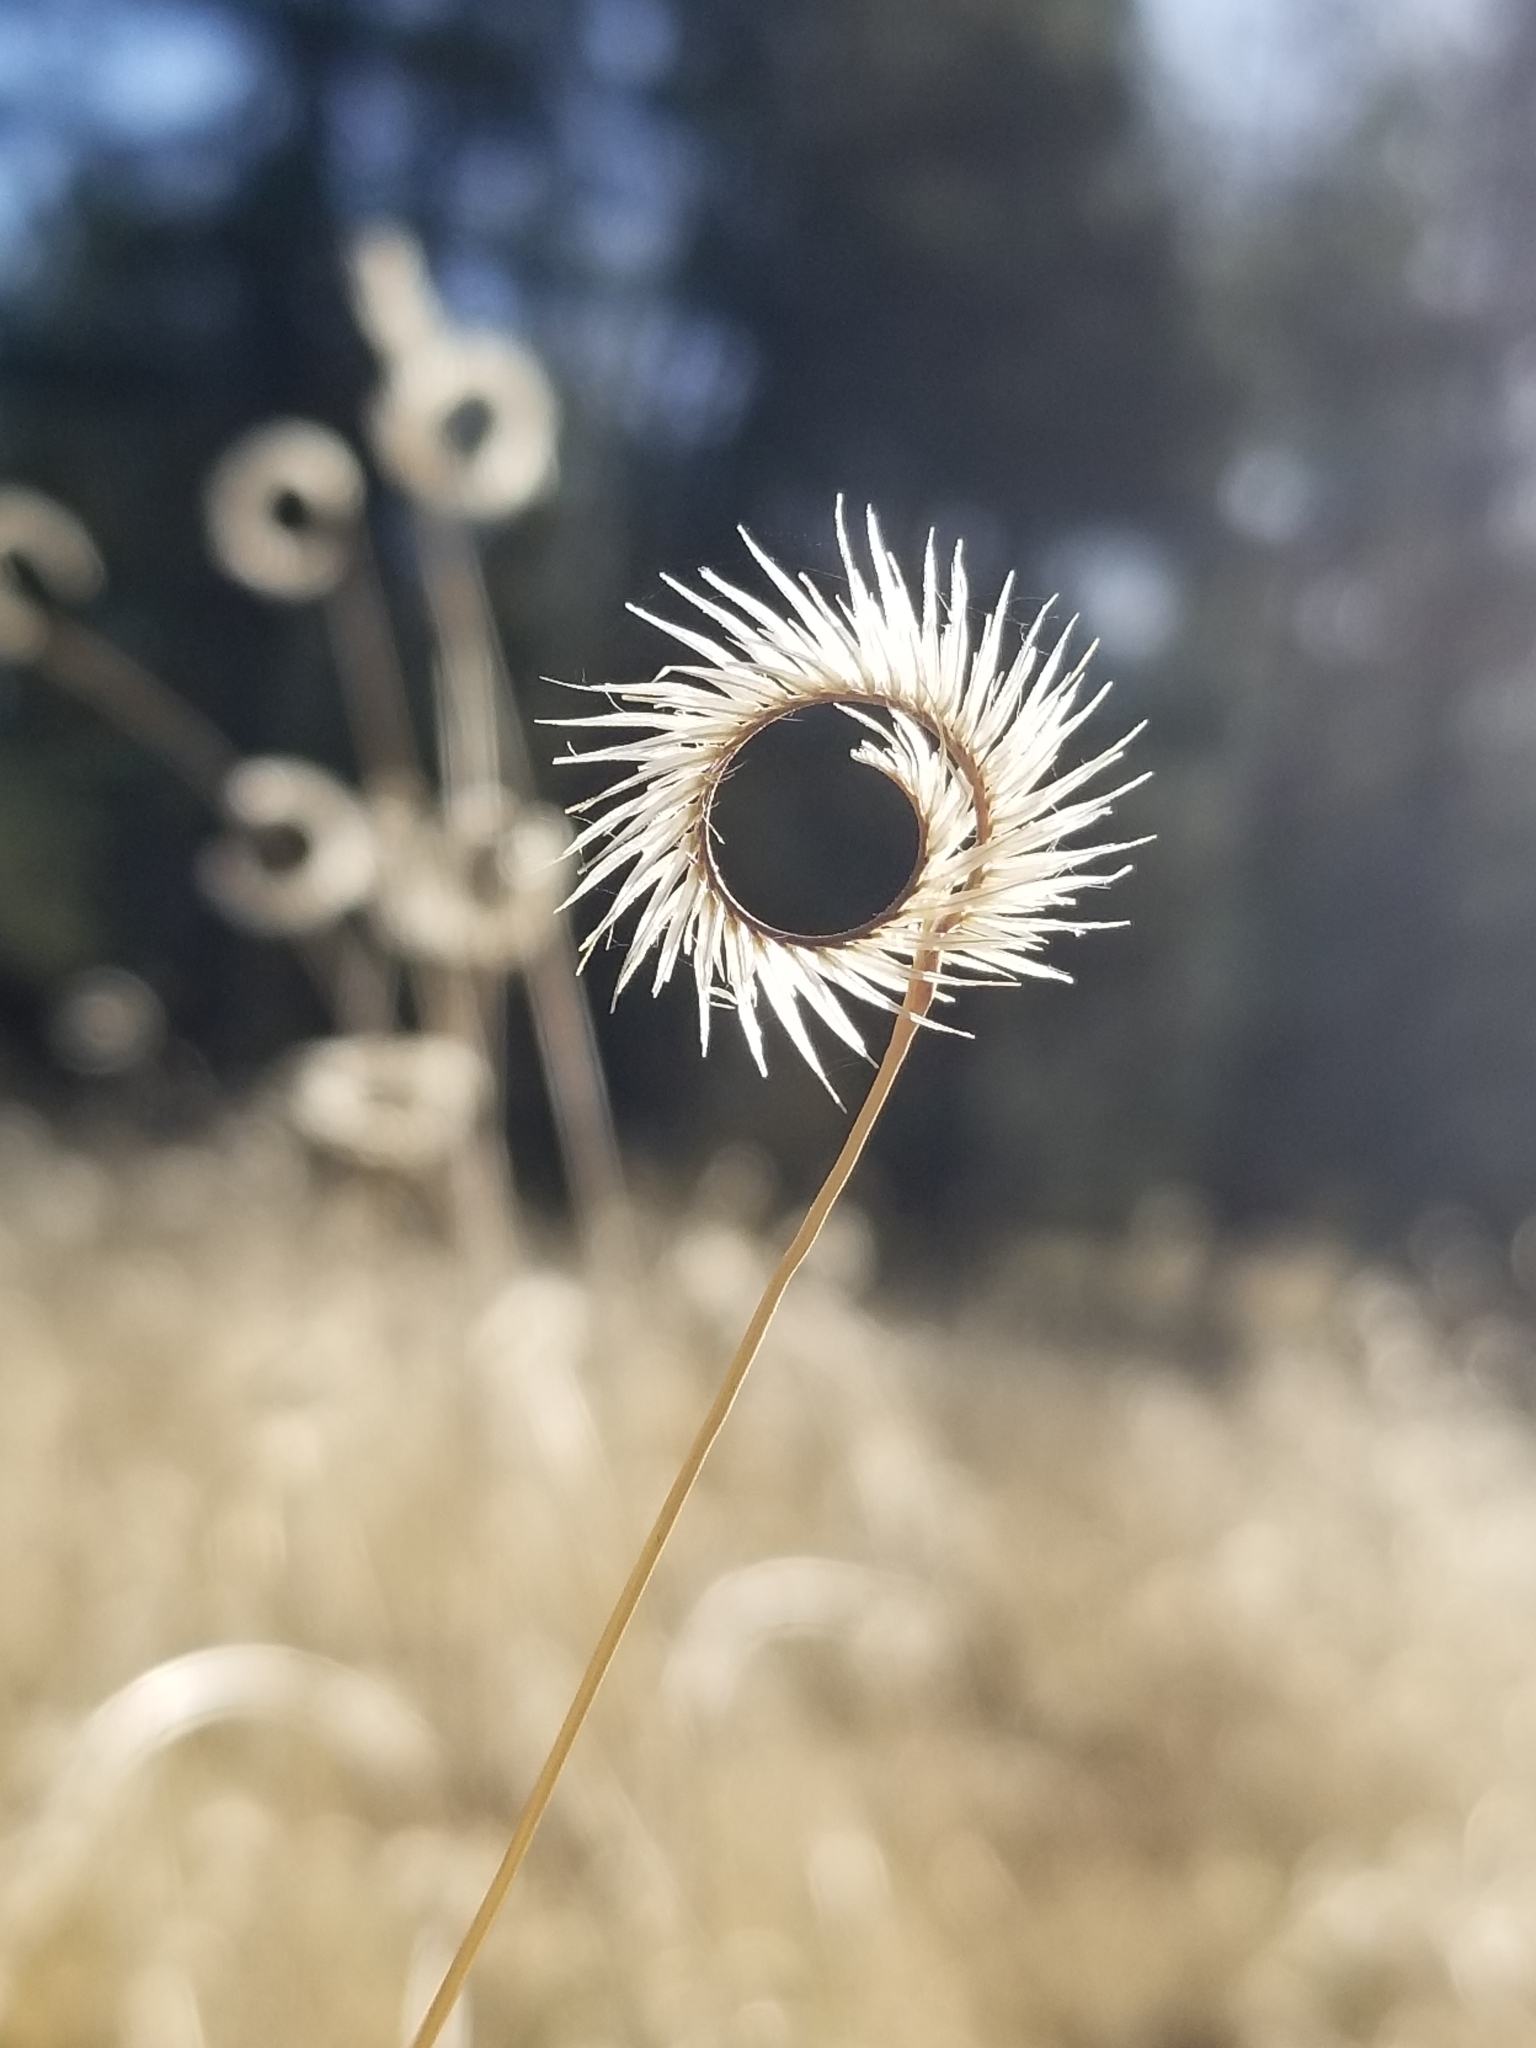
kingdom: Plantae
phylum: Tracheophyta
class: Liliopsida
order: Poales
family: Poaceae
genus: Bouteloua
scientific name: Bouteloua gracilis
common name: Blue grama
